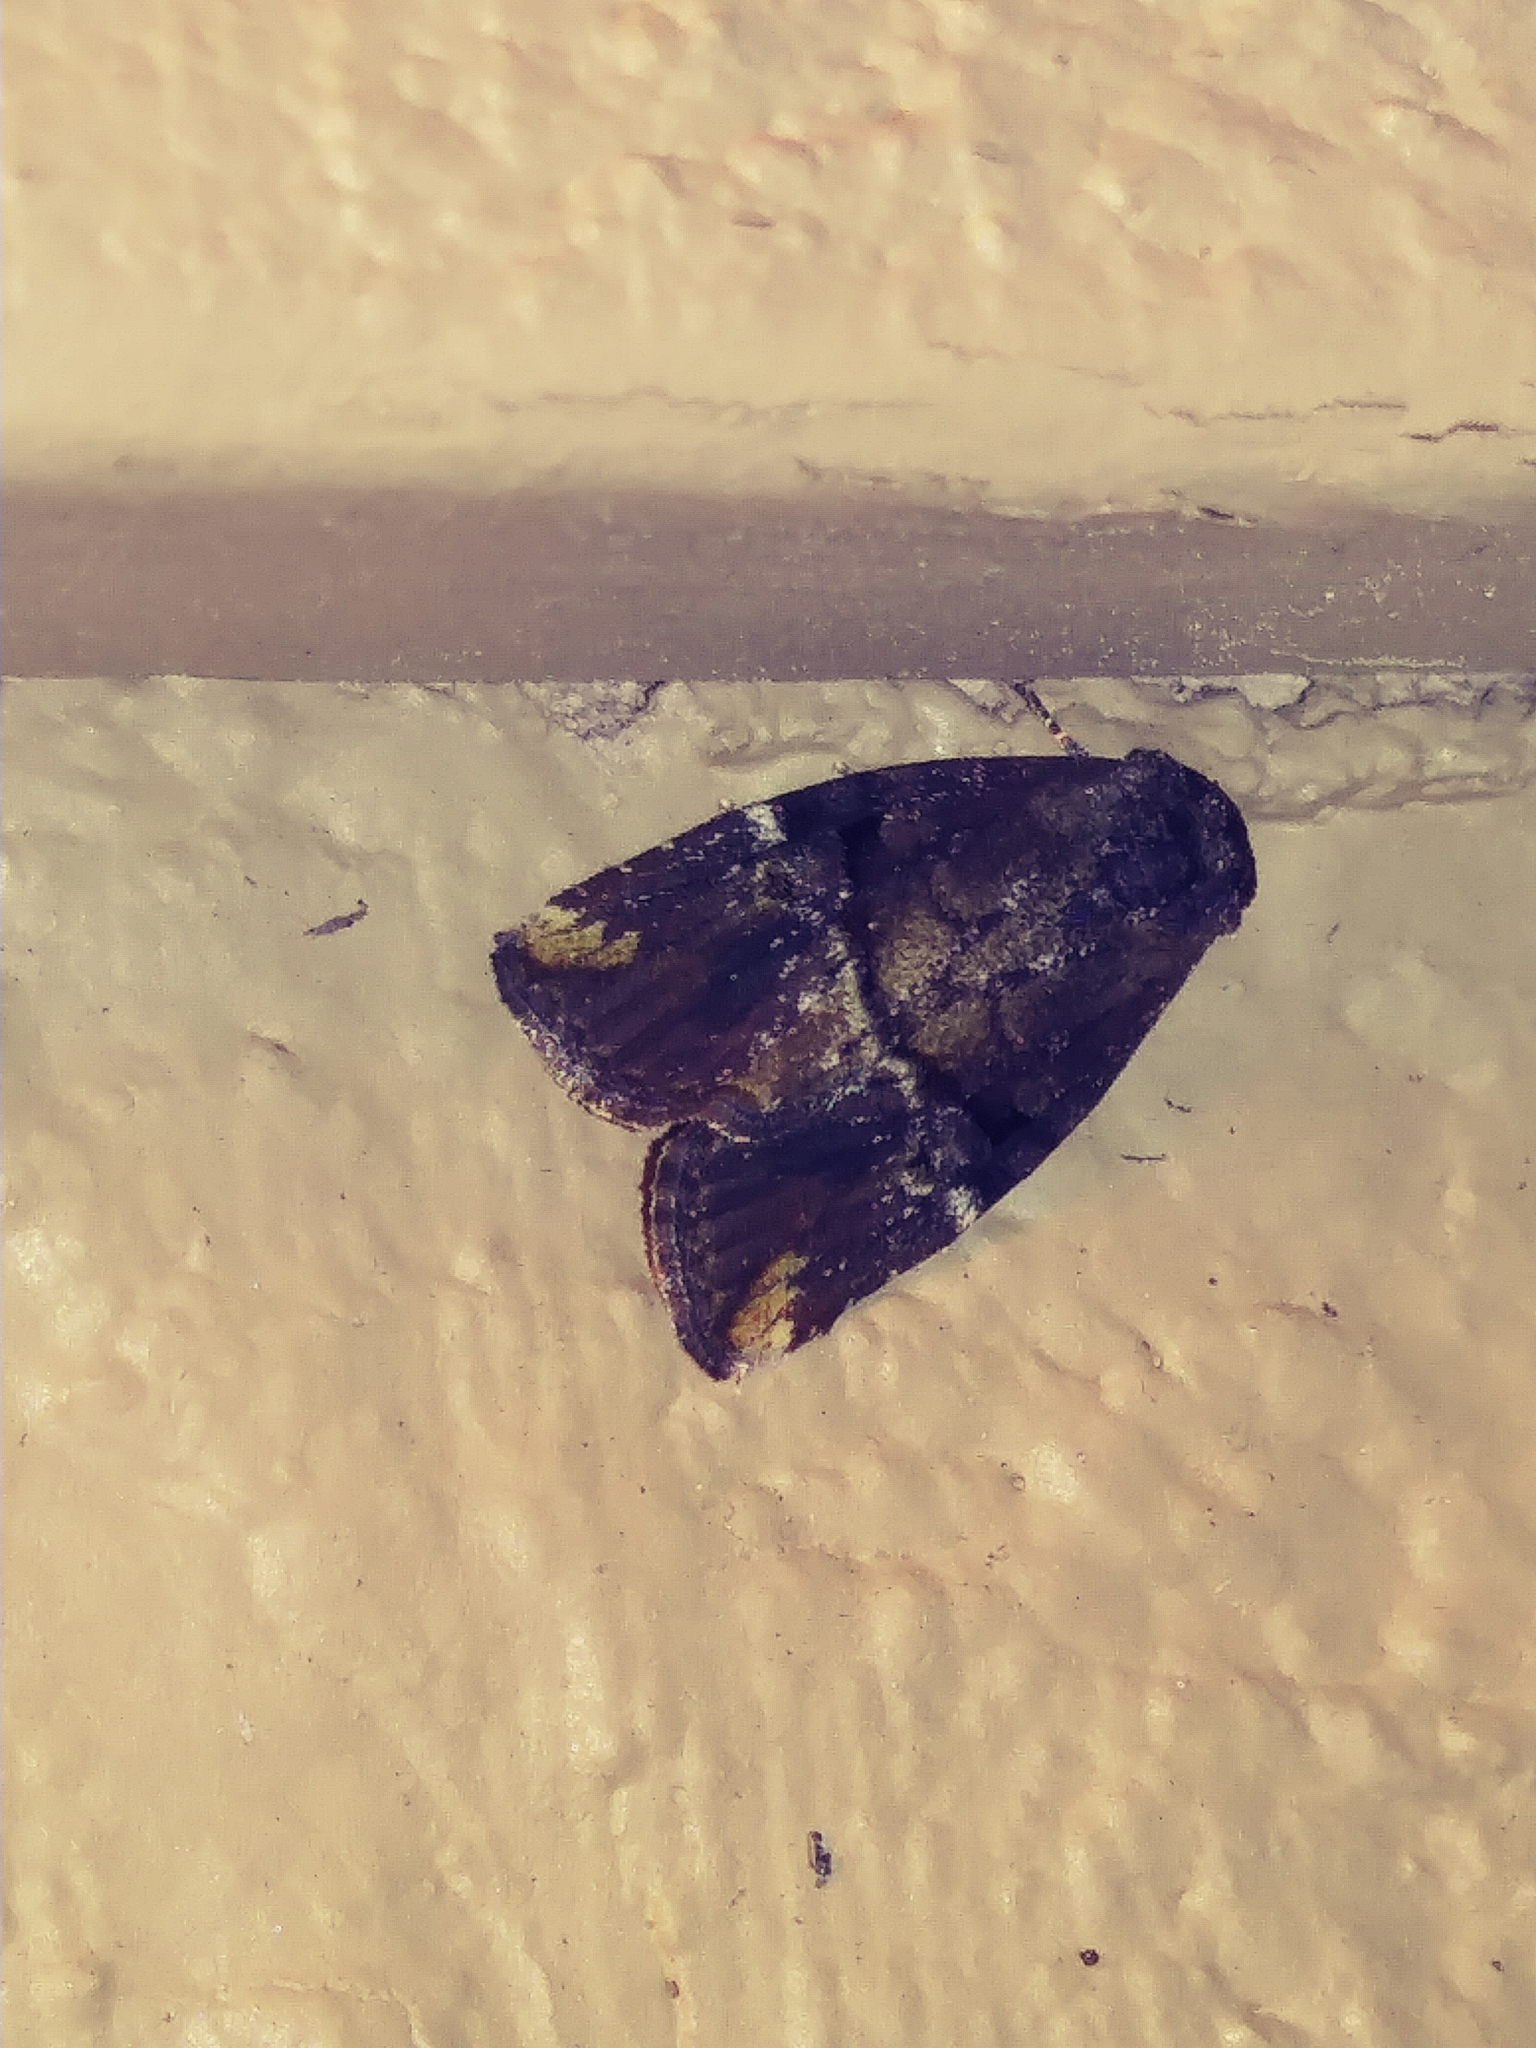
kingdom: Animalia
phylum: Arthropoda
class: Insecta
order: Lepidoptera
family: Noctuidae
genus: Elaphria
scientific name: Elaphria versicolor
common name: Fir harlequin
